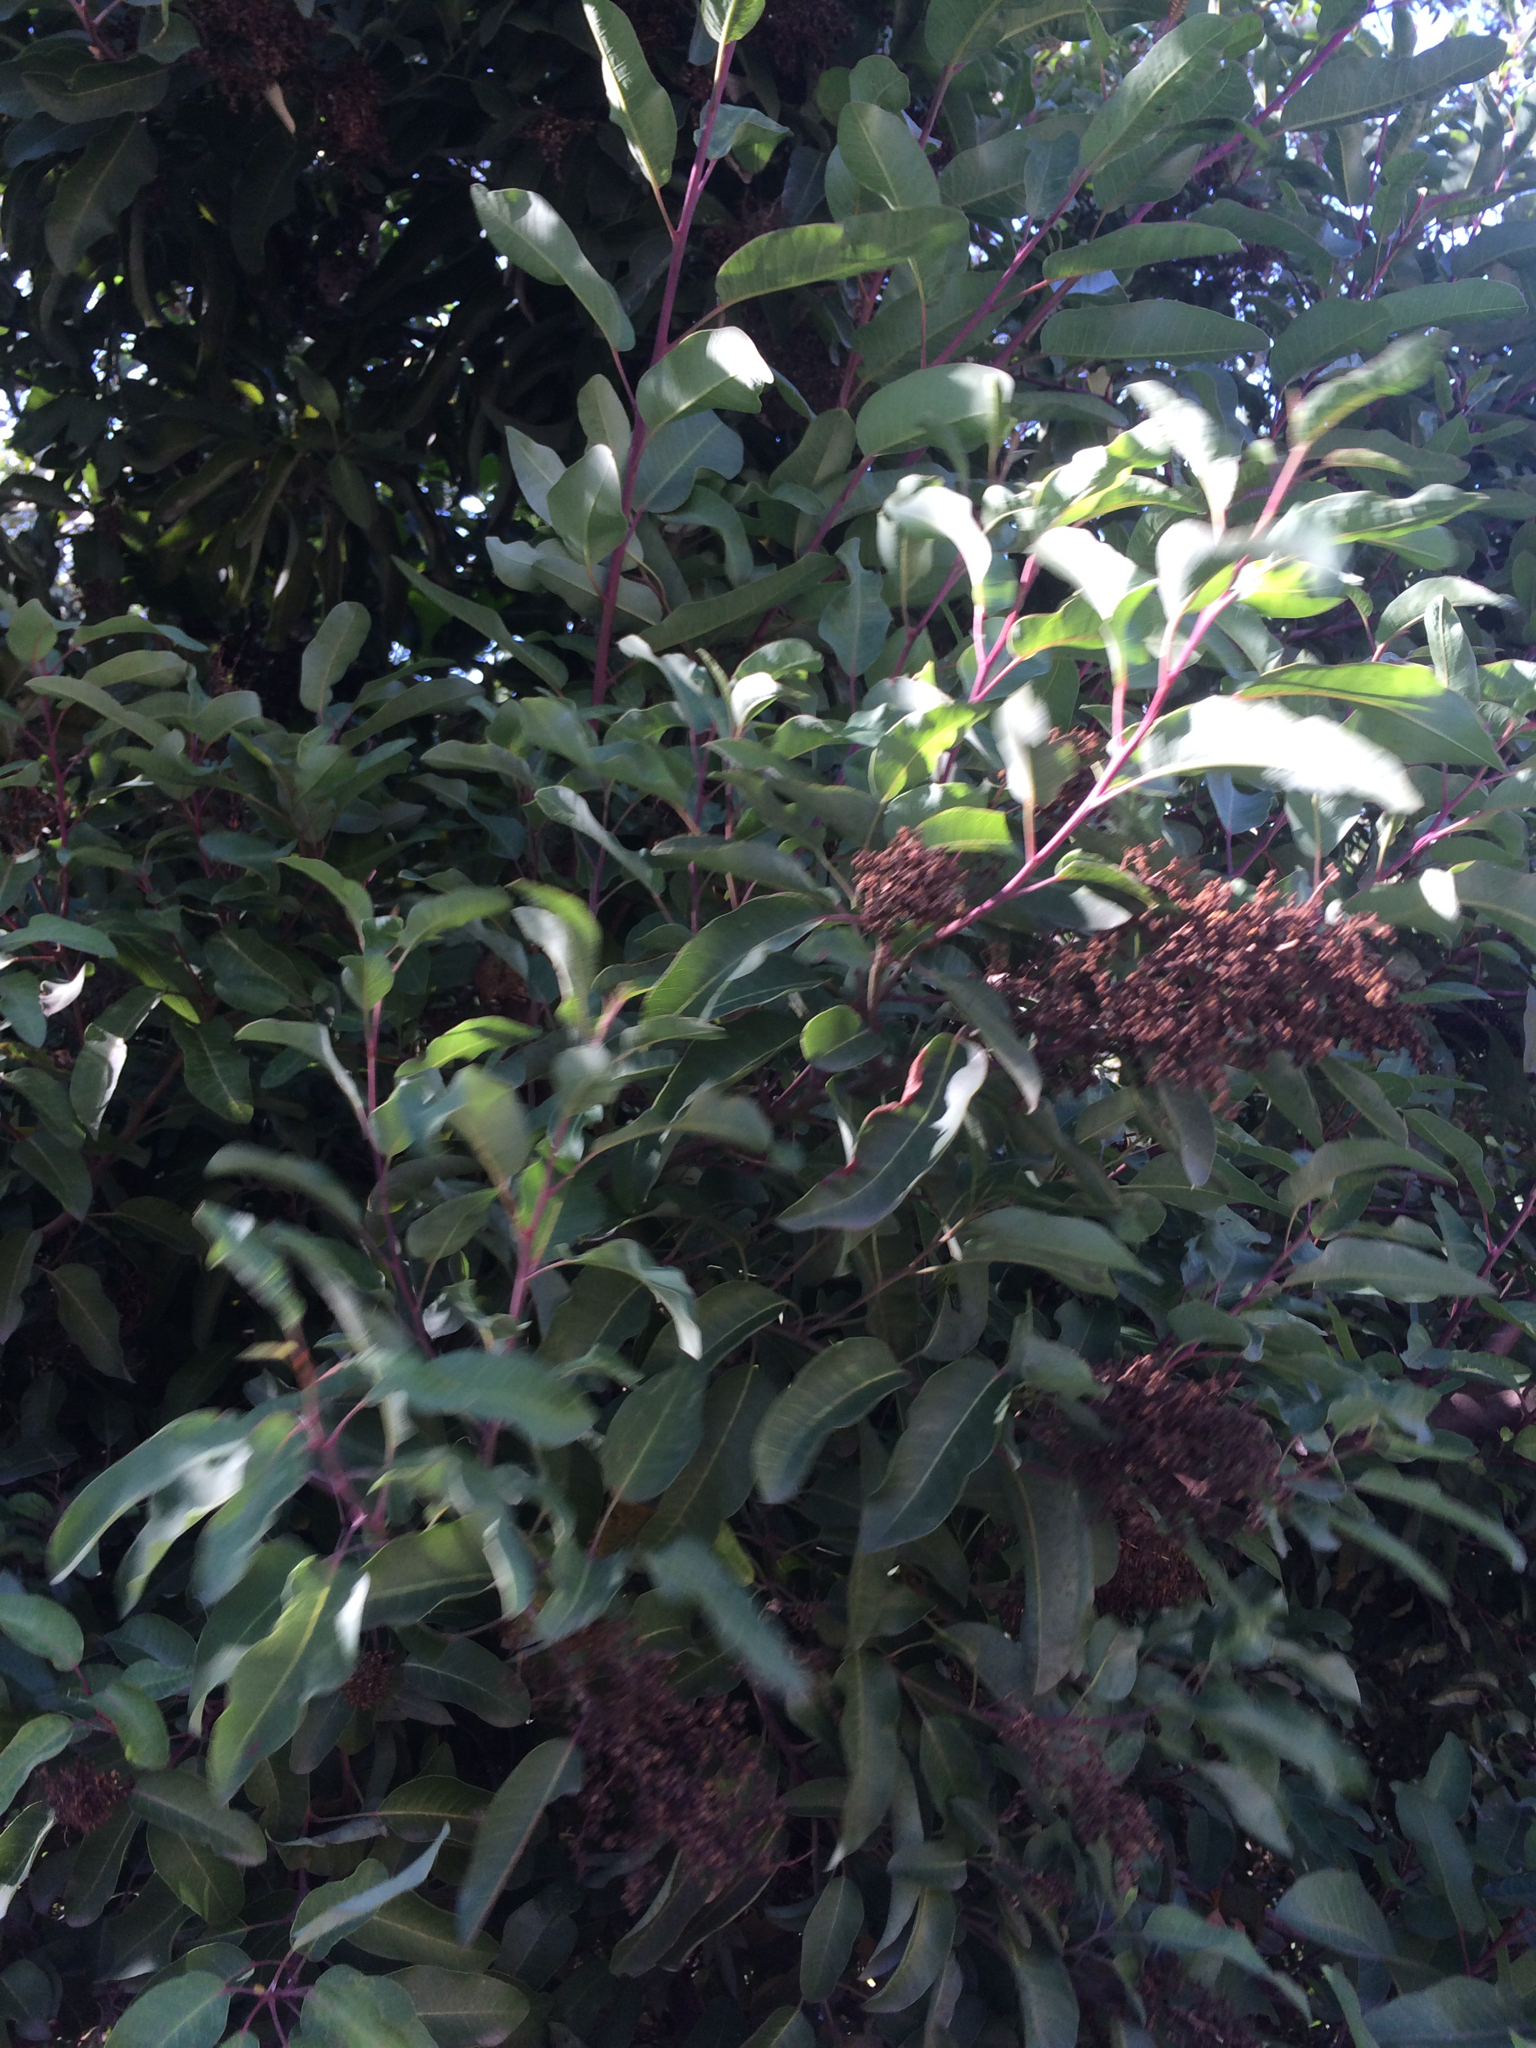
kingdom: Plantae
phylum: Tracheophyta
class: Magnoliopsida
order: Sapindales
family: Anacardiaceae
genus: Malosma
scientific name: Malosma laurina
